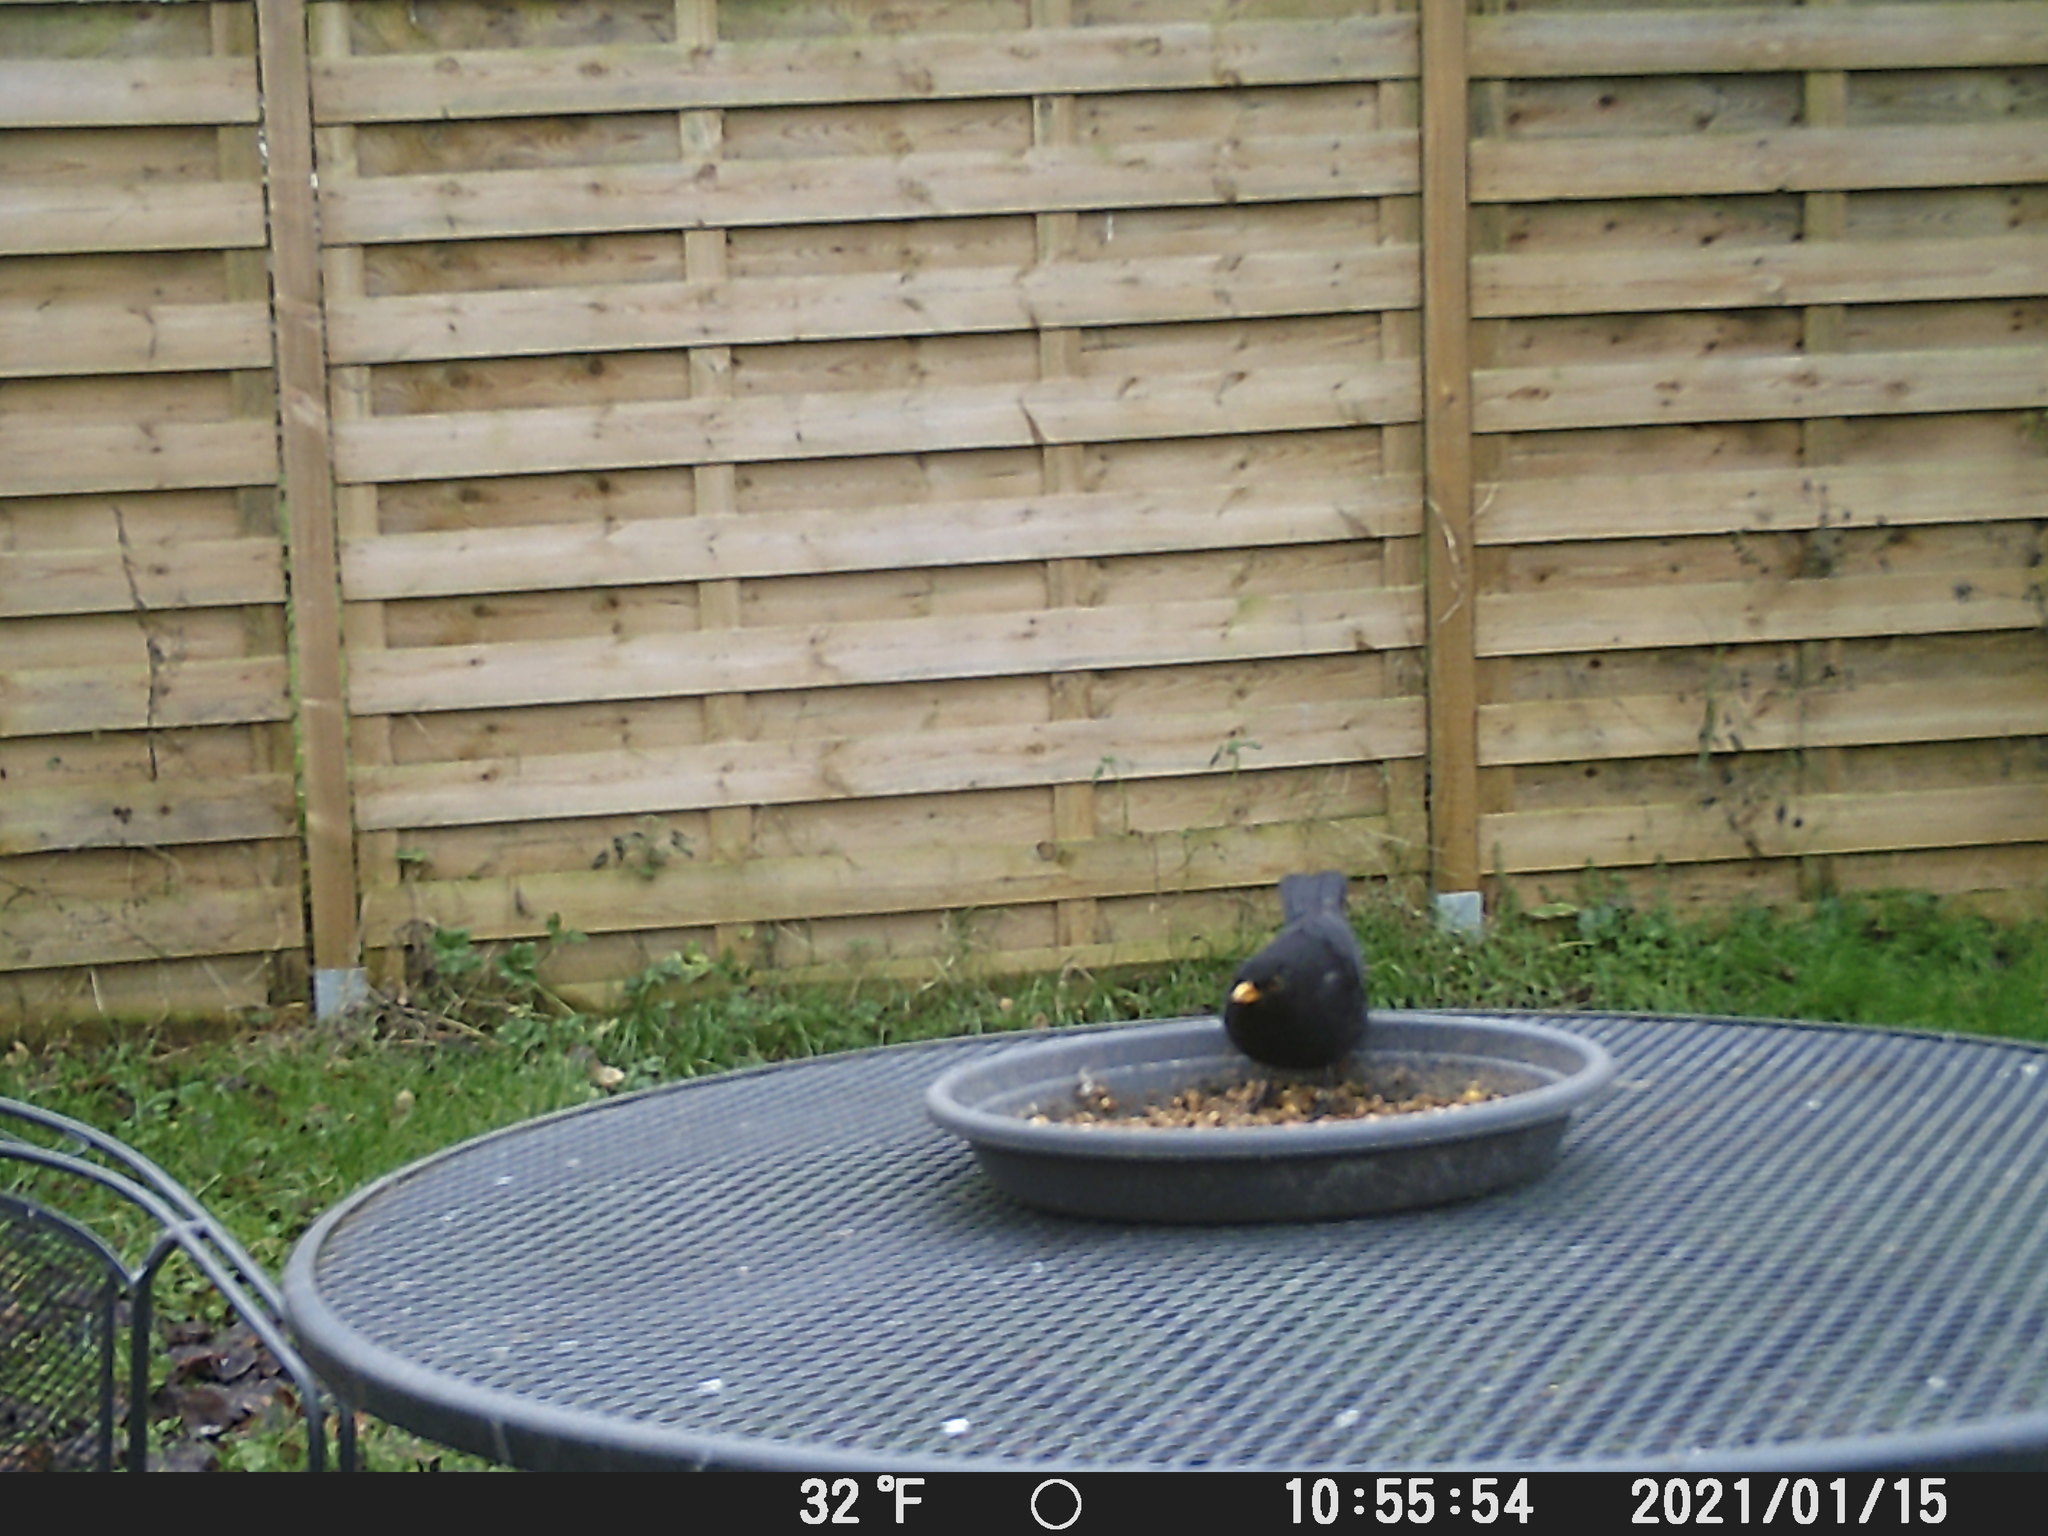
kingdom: Animalia
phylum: Chordata
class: Aves
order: Passeriformes
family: Turdidae
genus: Turdus
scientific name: Turdus merula
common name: Common blackbird
